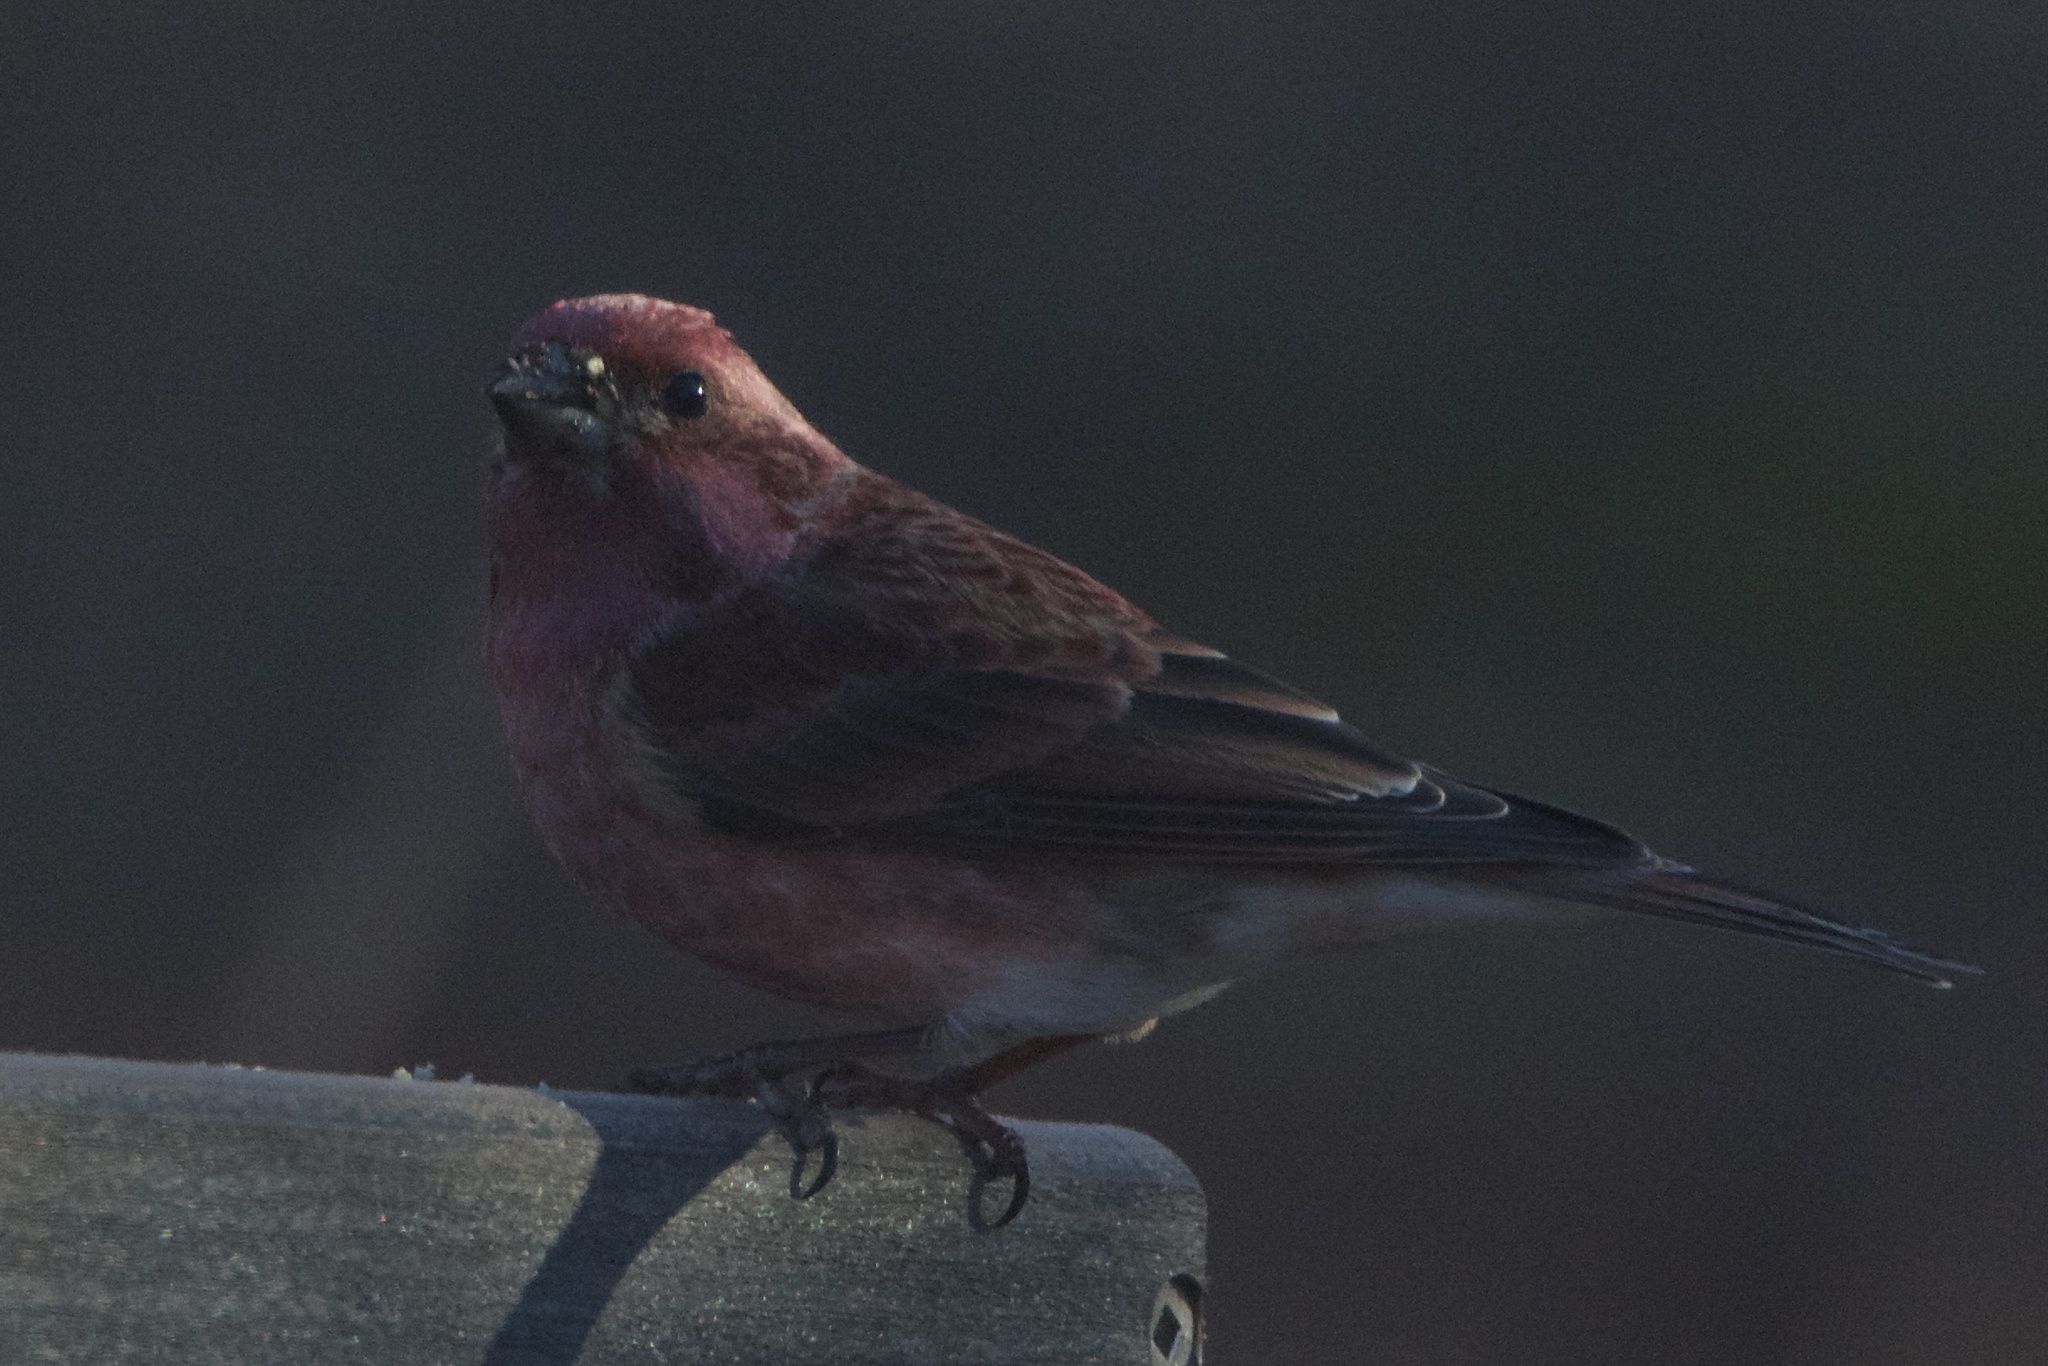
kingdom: Animalia
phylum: Chordata
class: Aves
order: Passeriformes
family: Fringillidae
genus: Haemorhous
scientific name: Haemorhous purpureus
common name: Purple finch
